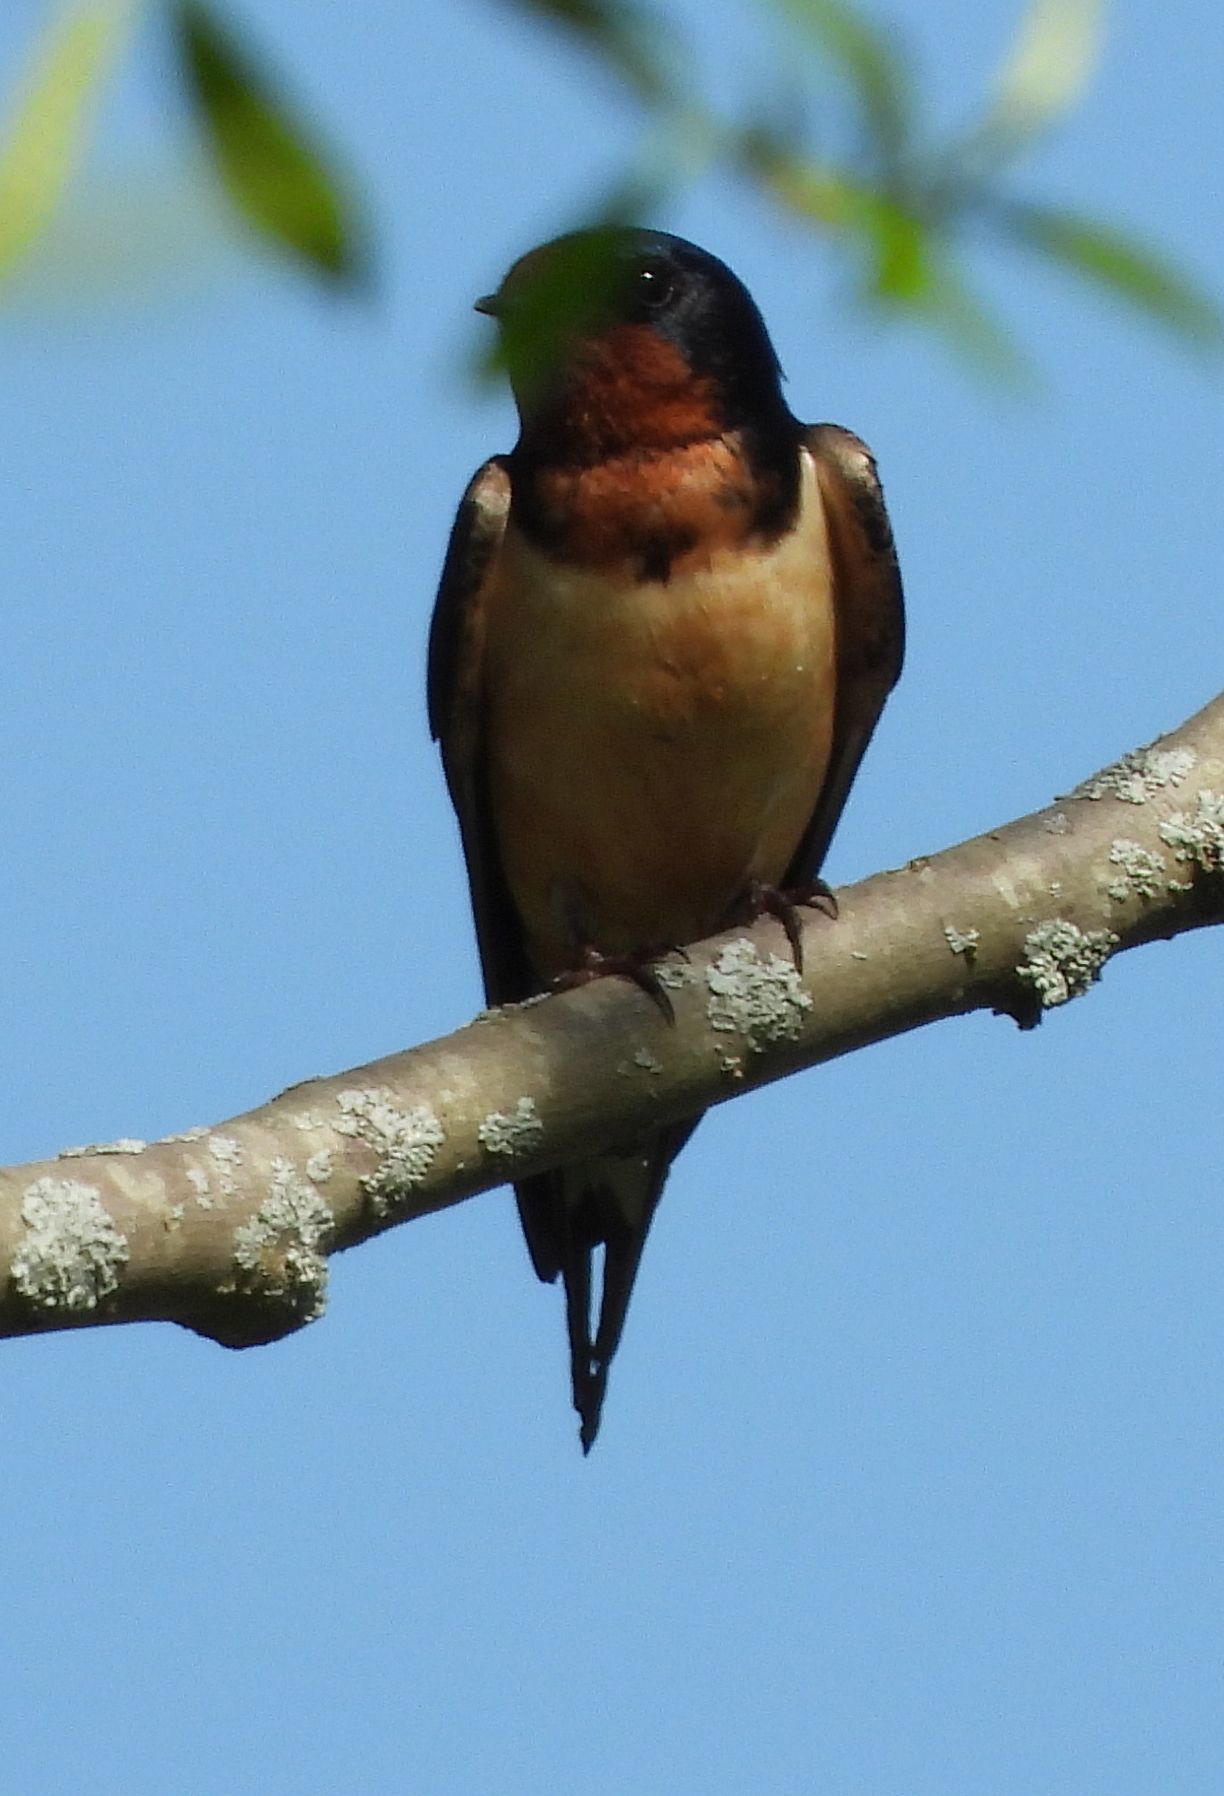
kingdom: Animalia
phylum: Chordata
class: Aves
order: Passeriformes
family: Hirundinidae
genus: Hirundo
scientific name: Hirundo rustica
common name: Barn swallow
